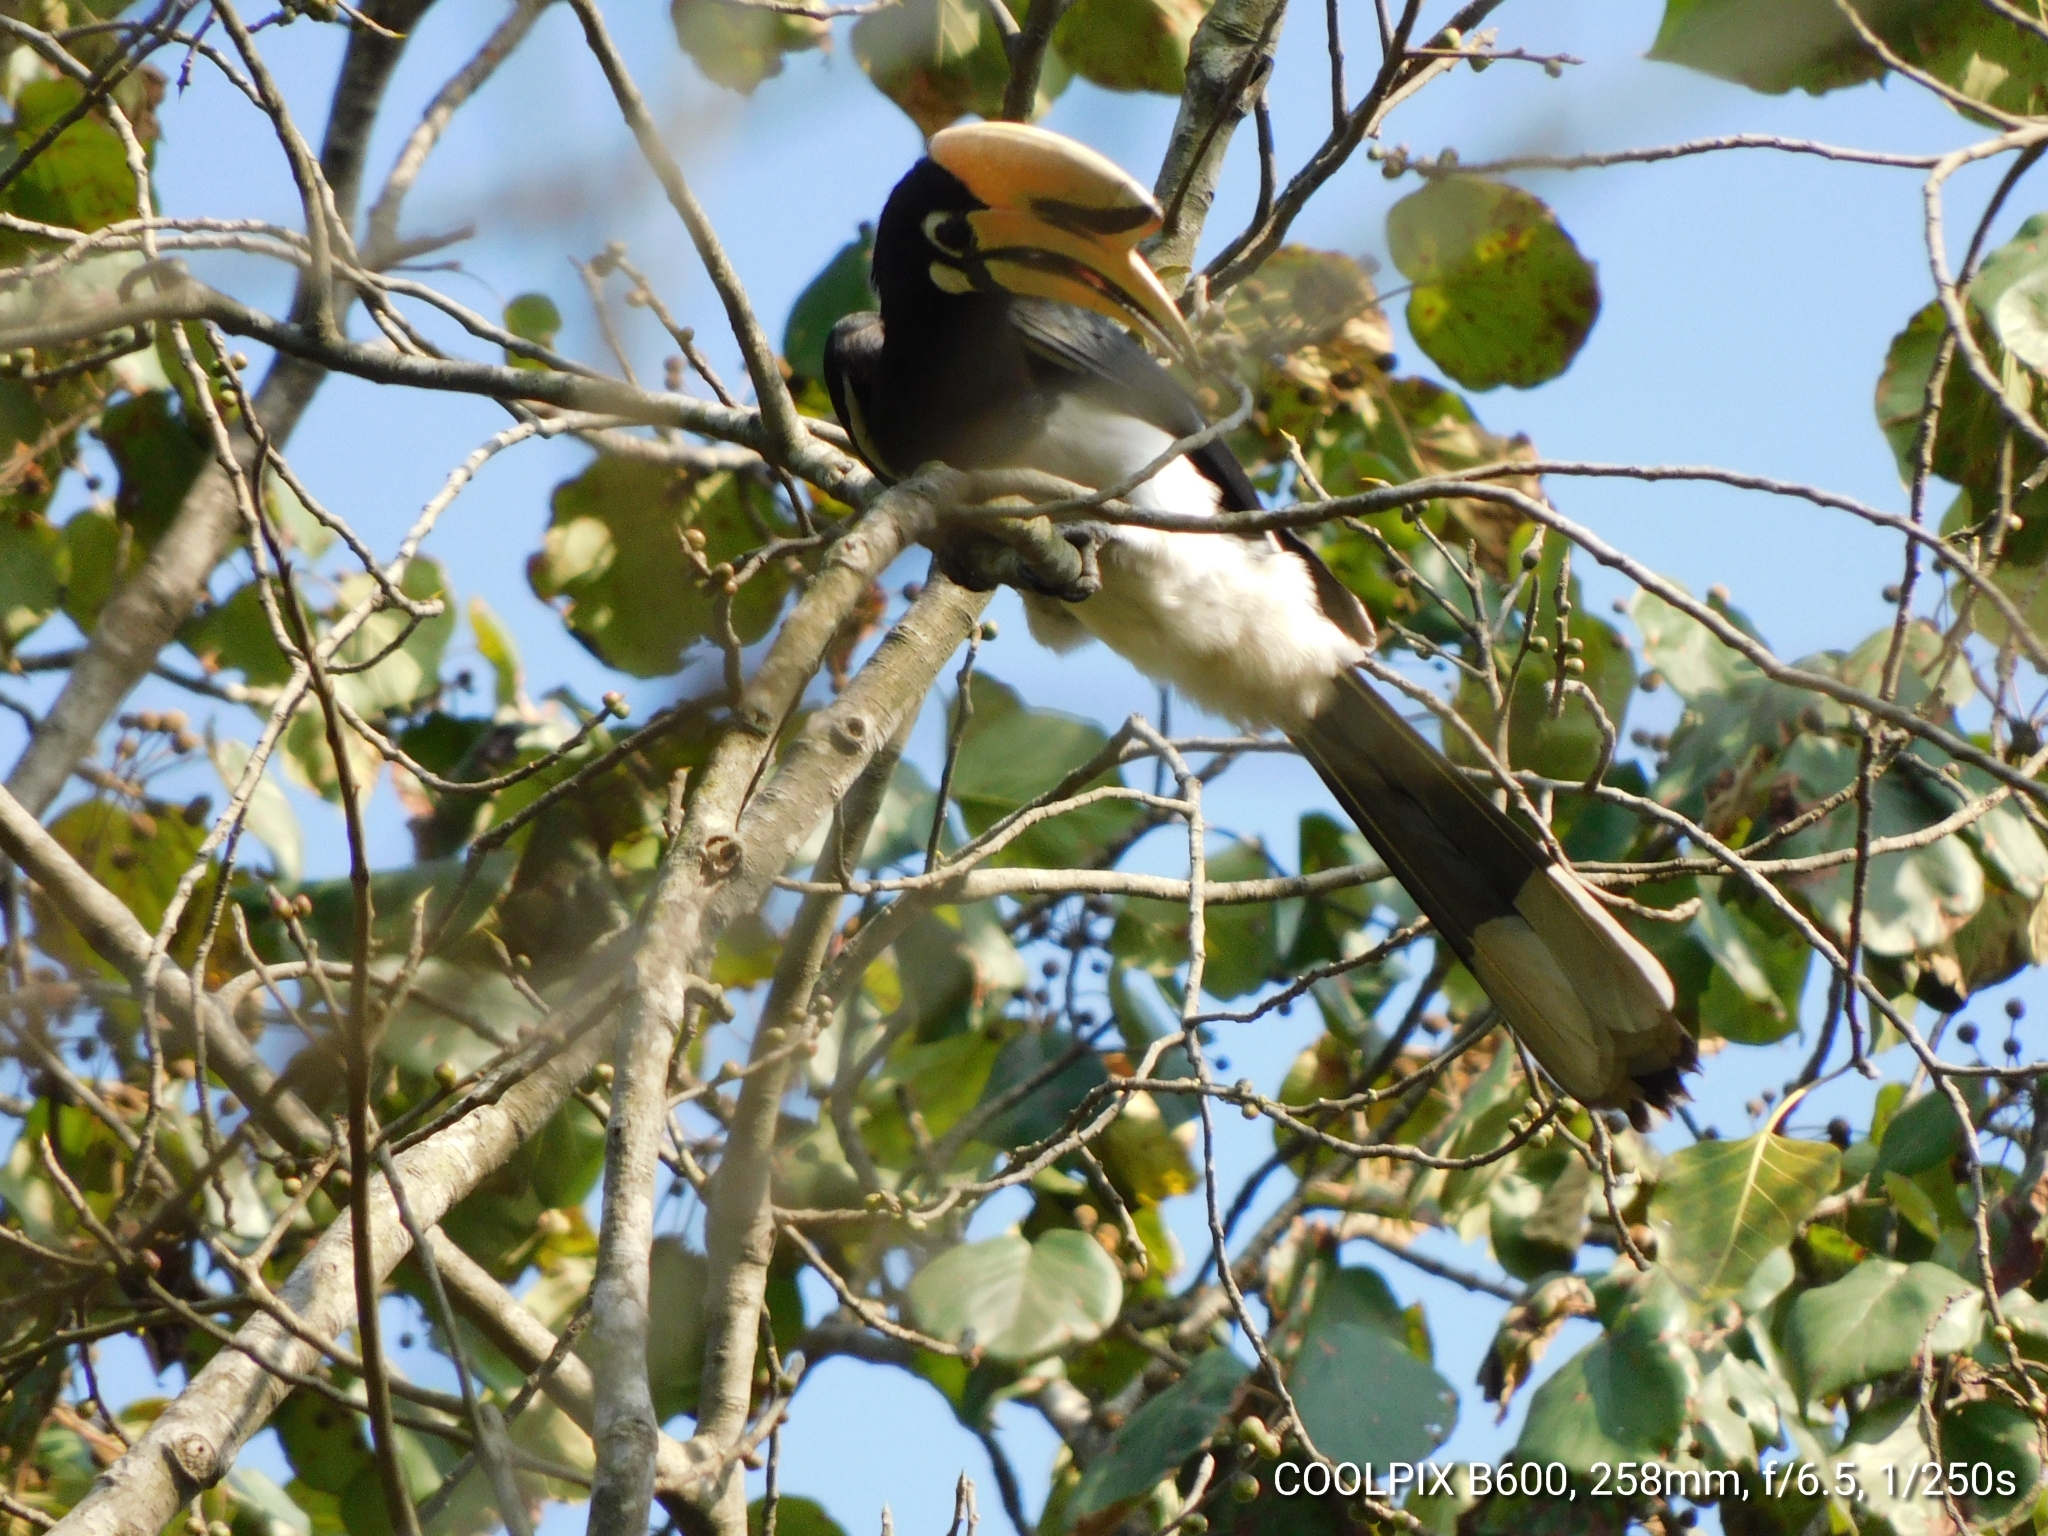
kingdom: Animalia
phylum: Chordata
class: Aves
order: Bucerotiformes
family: Bucerotidae
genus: Anthracoceros
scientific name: Anthracoceros albirostris
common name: Oriental pied-hornbill
